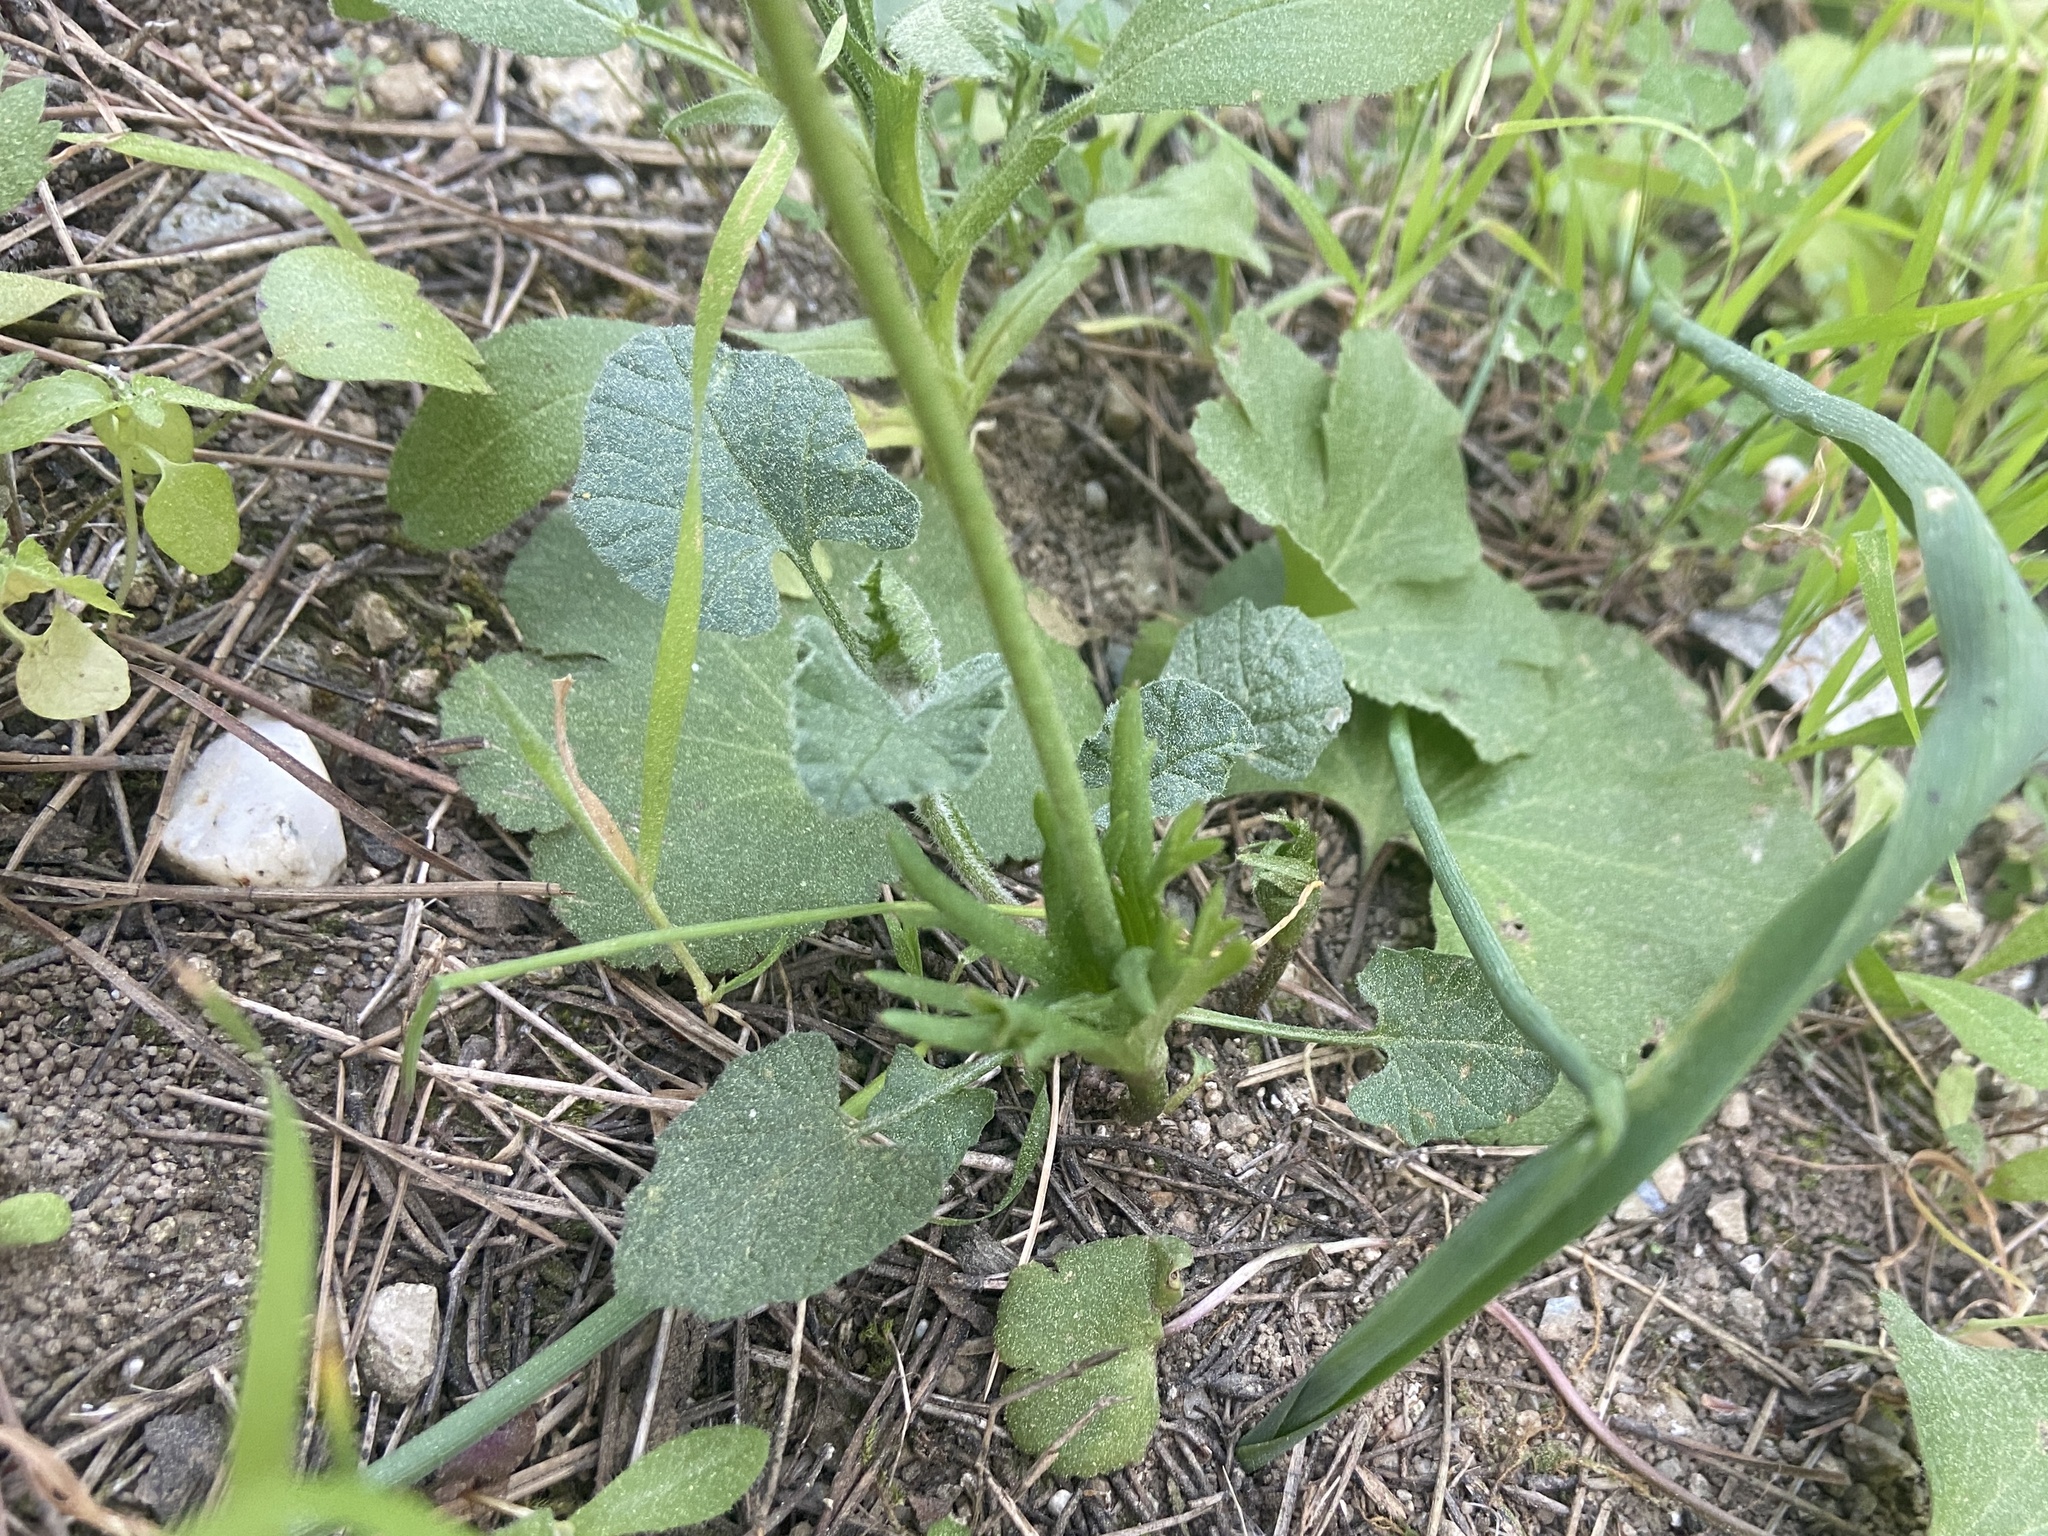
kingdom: Plantae
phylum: Tracheophyta
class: Magnoliopsida
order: Ranunculales
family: Ranunculaceae
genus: Anemone
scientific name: Anemone palmata
